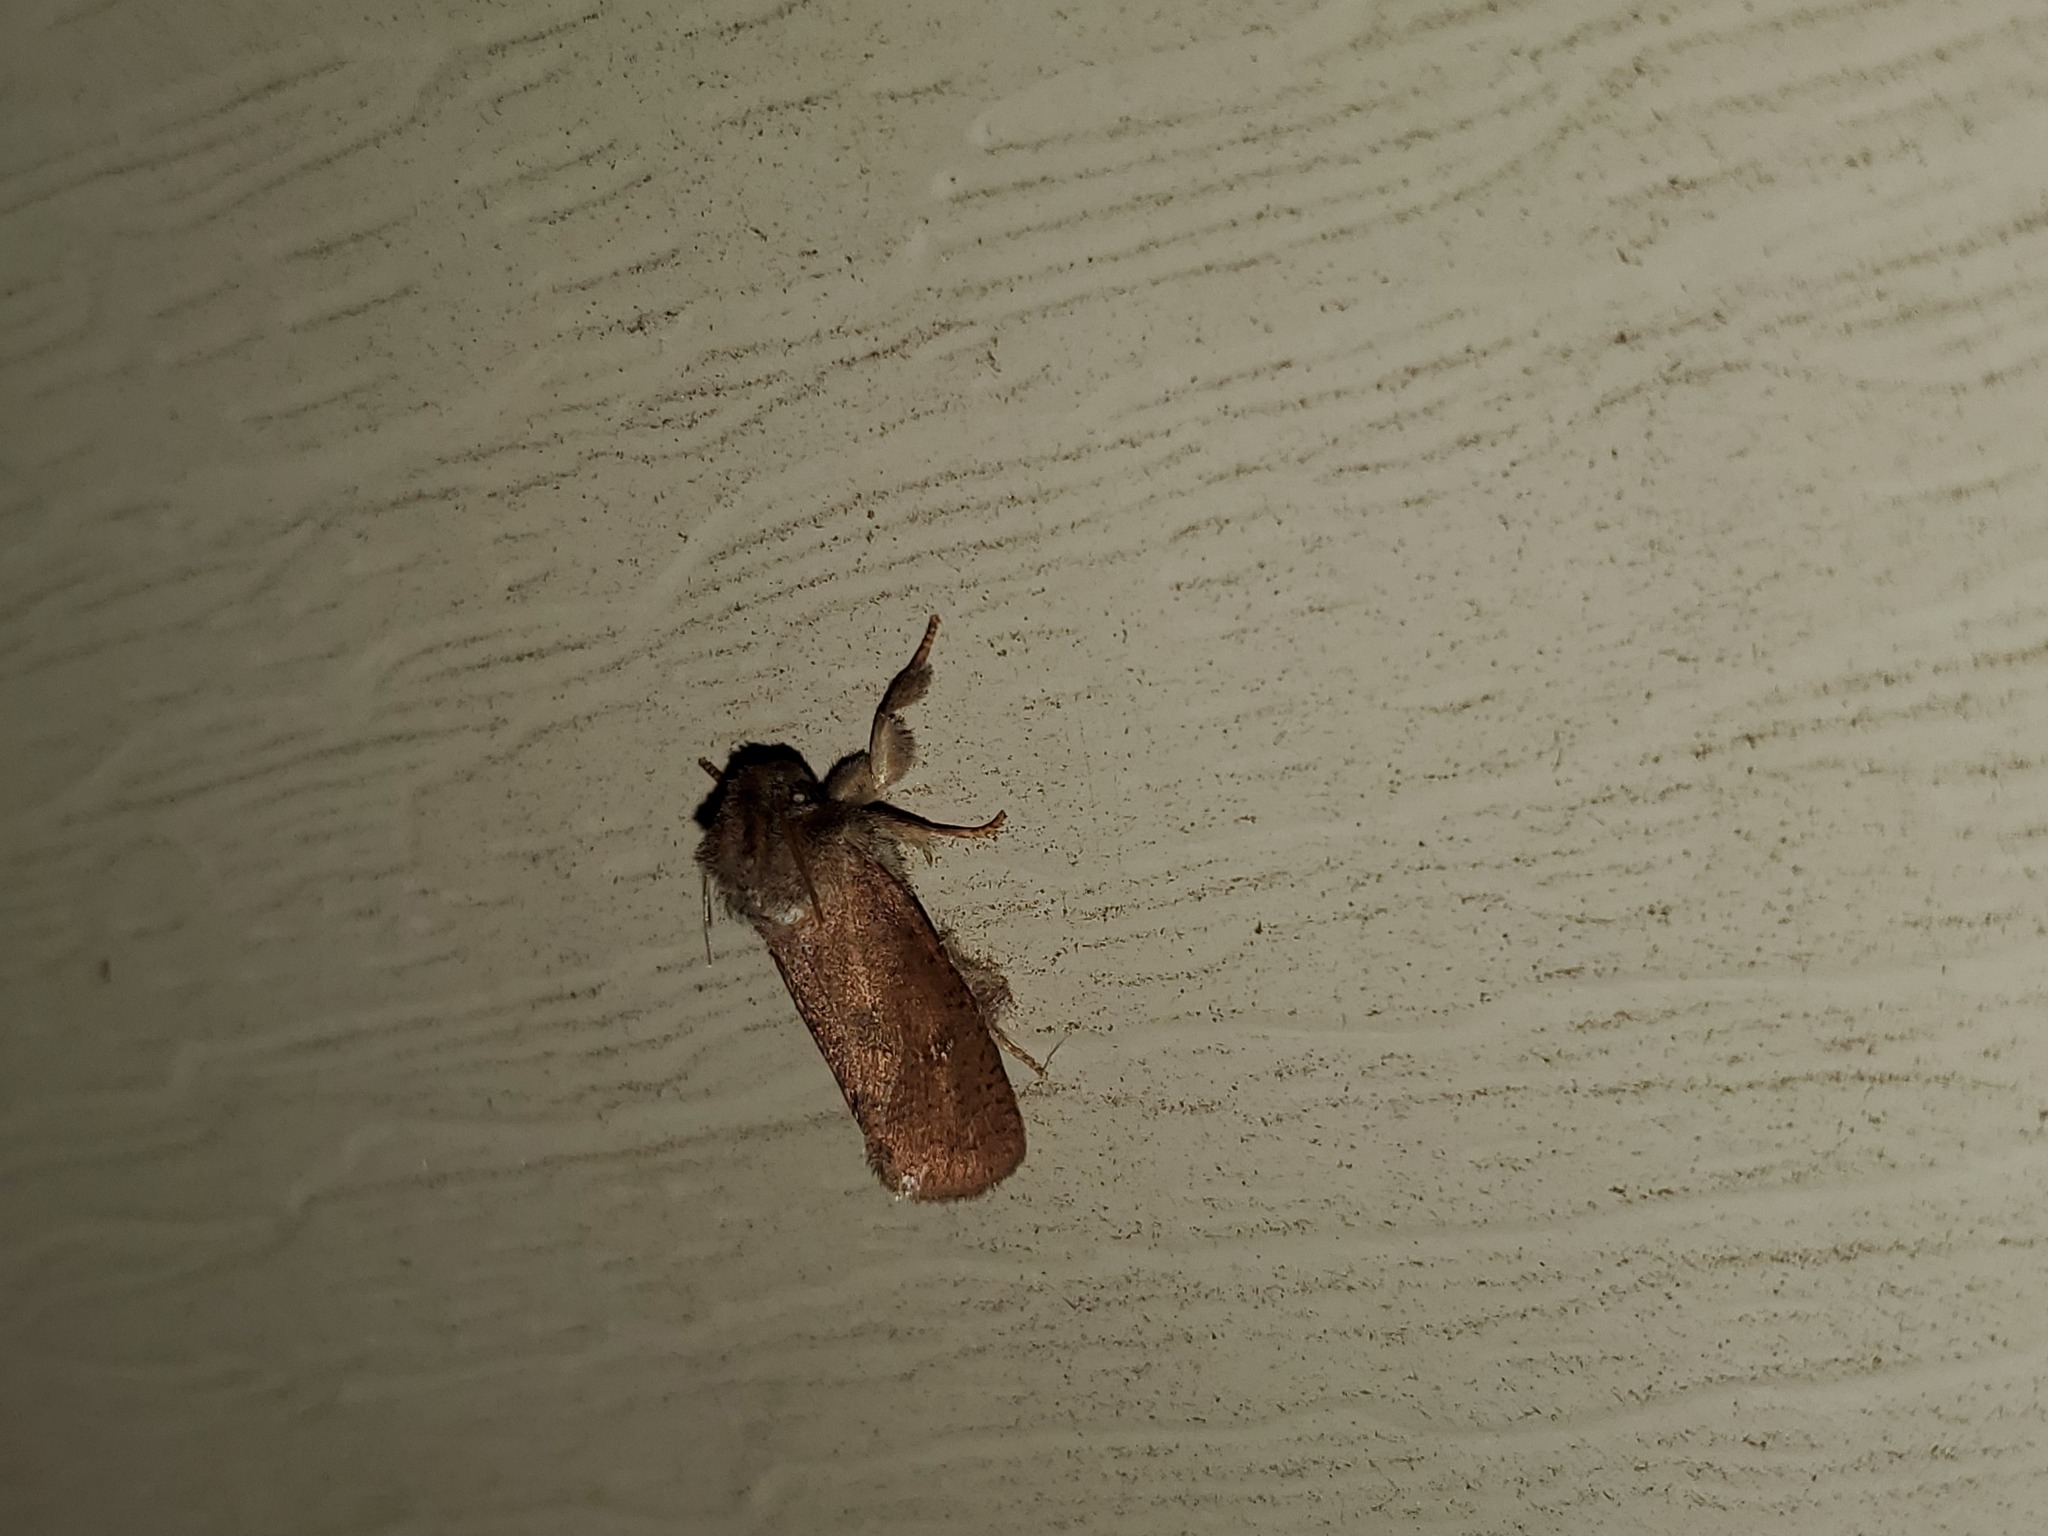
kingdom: Animalia
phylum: Arthropoda
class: Insecta
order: Lepidoptera
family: Tineidae
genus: Acrolophus
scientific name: Acrolophus plumifrontella
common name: Eastern grass tubeworm moth
